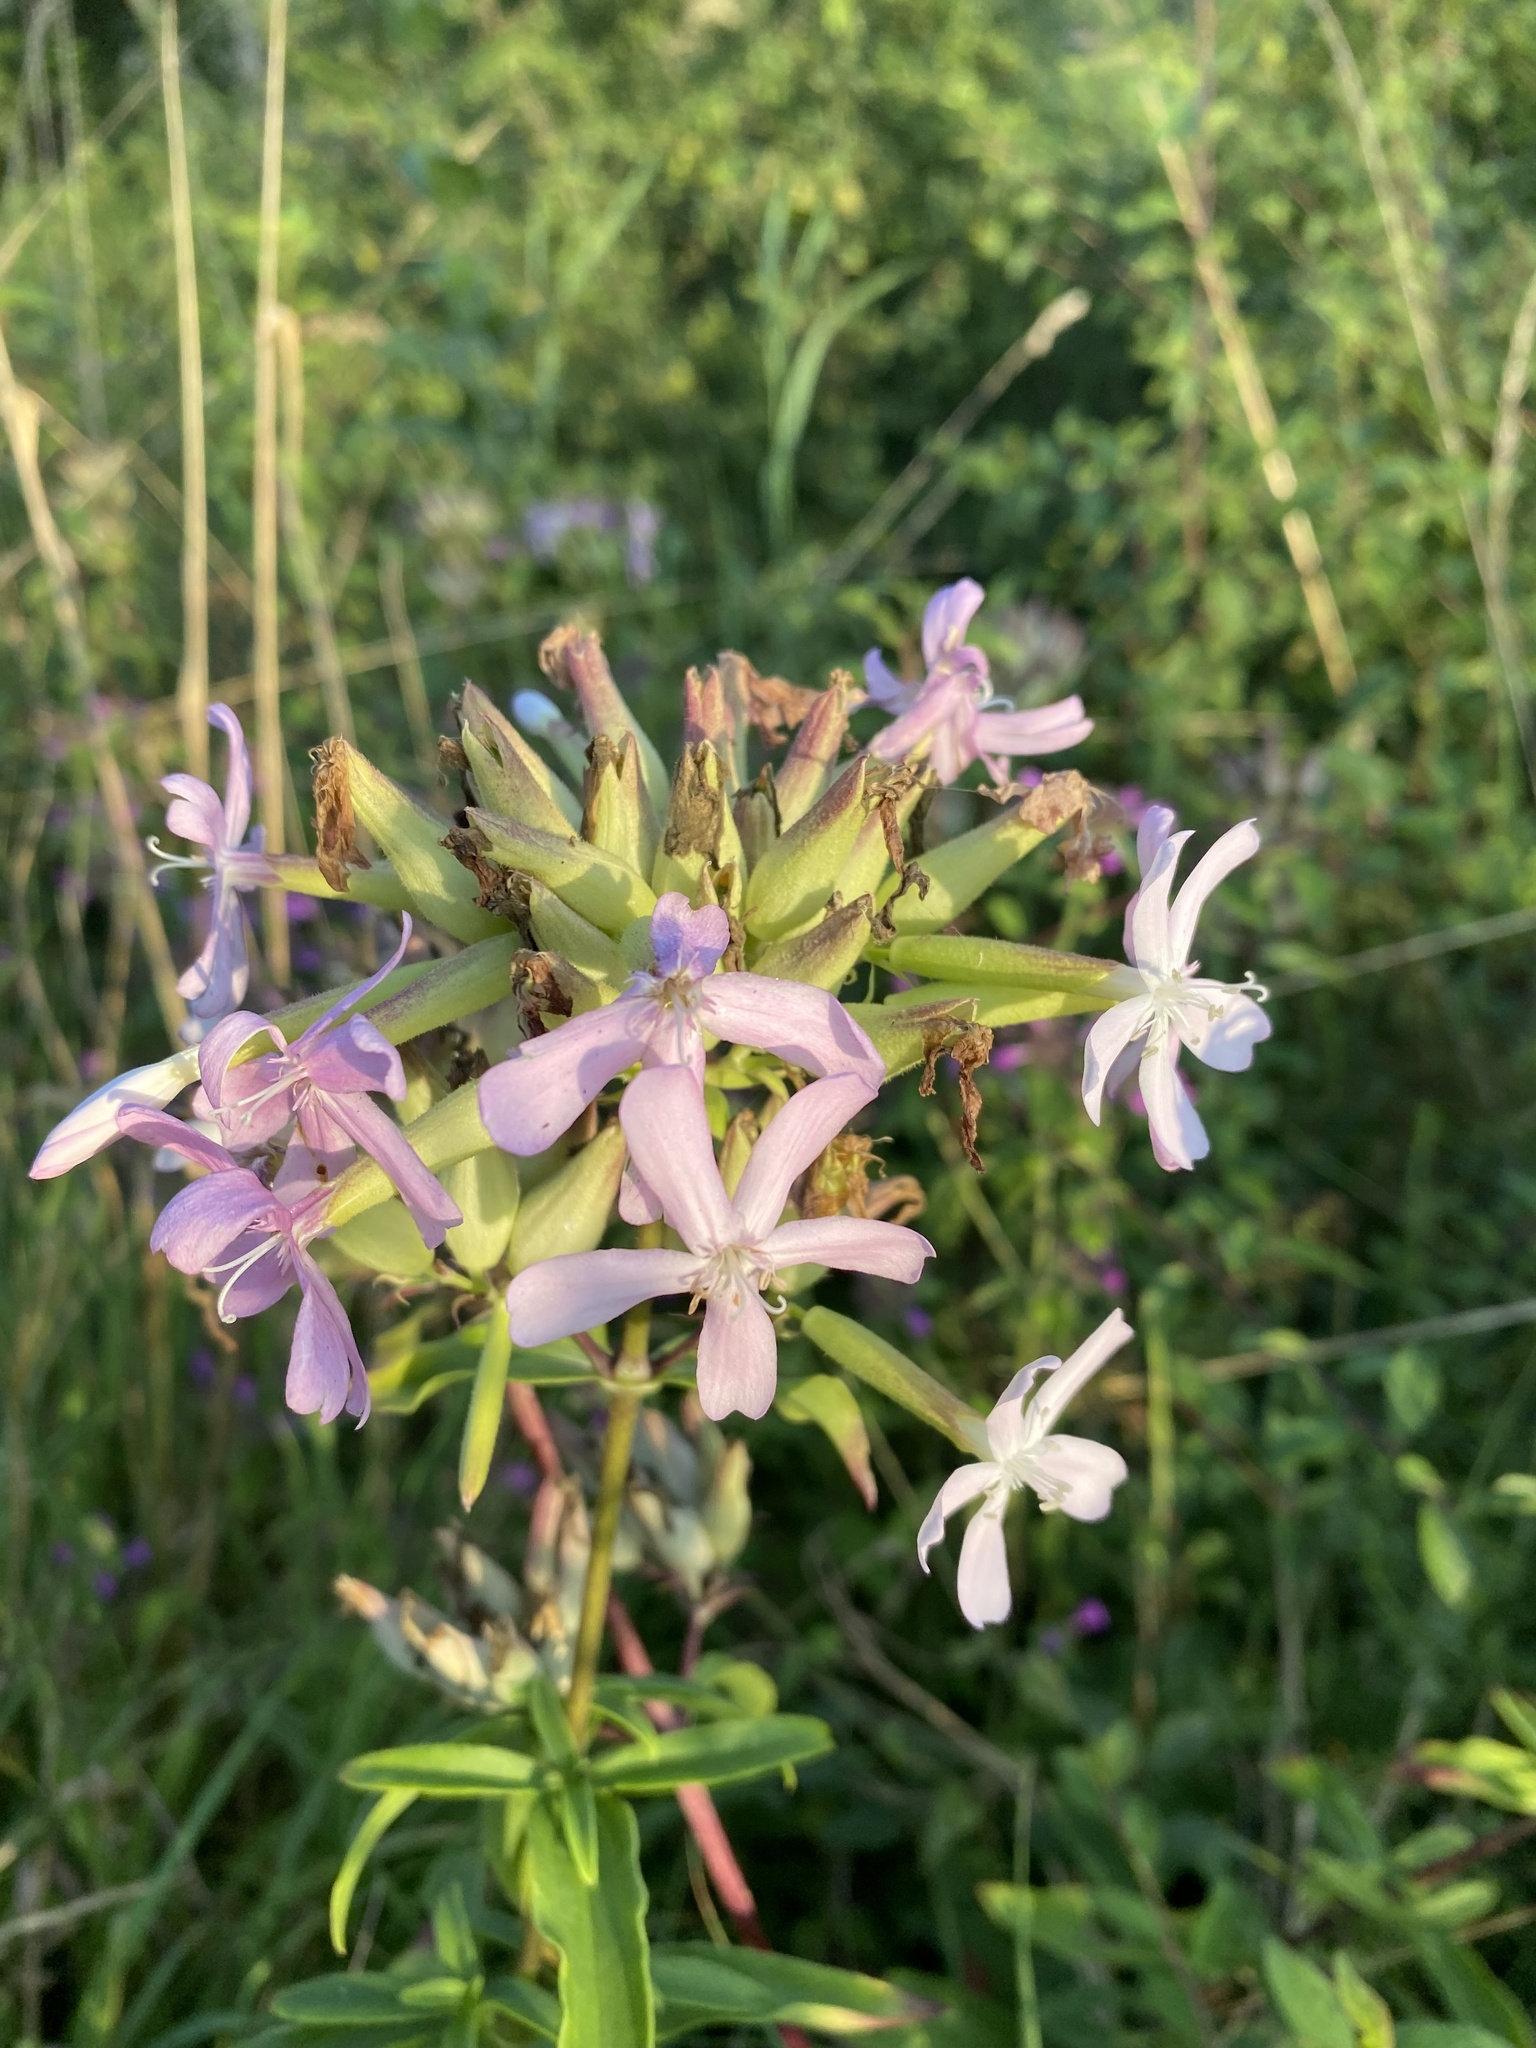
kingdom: Plantae
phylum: Tracheophyta
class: Magnoliopsida
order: Caryophyllales
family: Caryophyllaceae
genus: Saponaria
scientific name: Saponaria officinalis
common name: Soapwort
